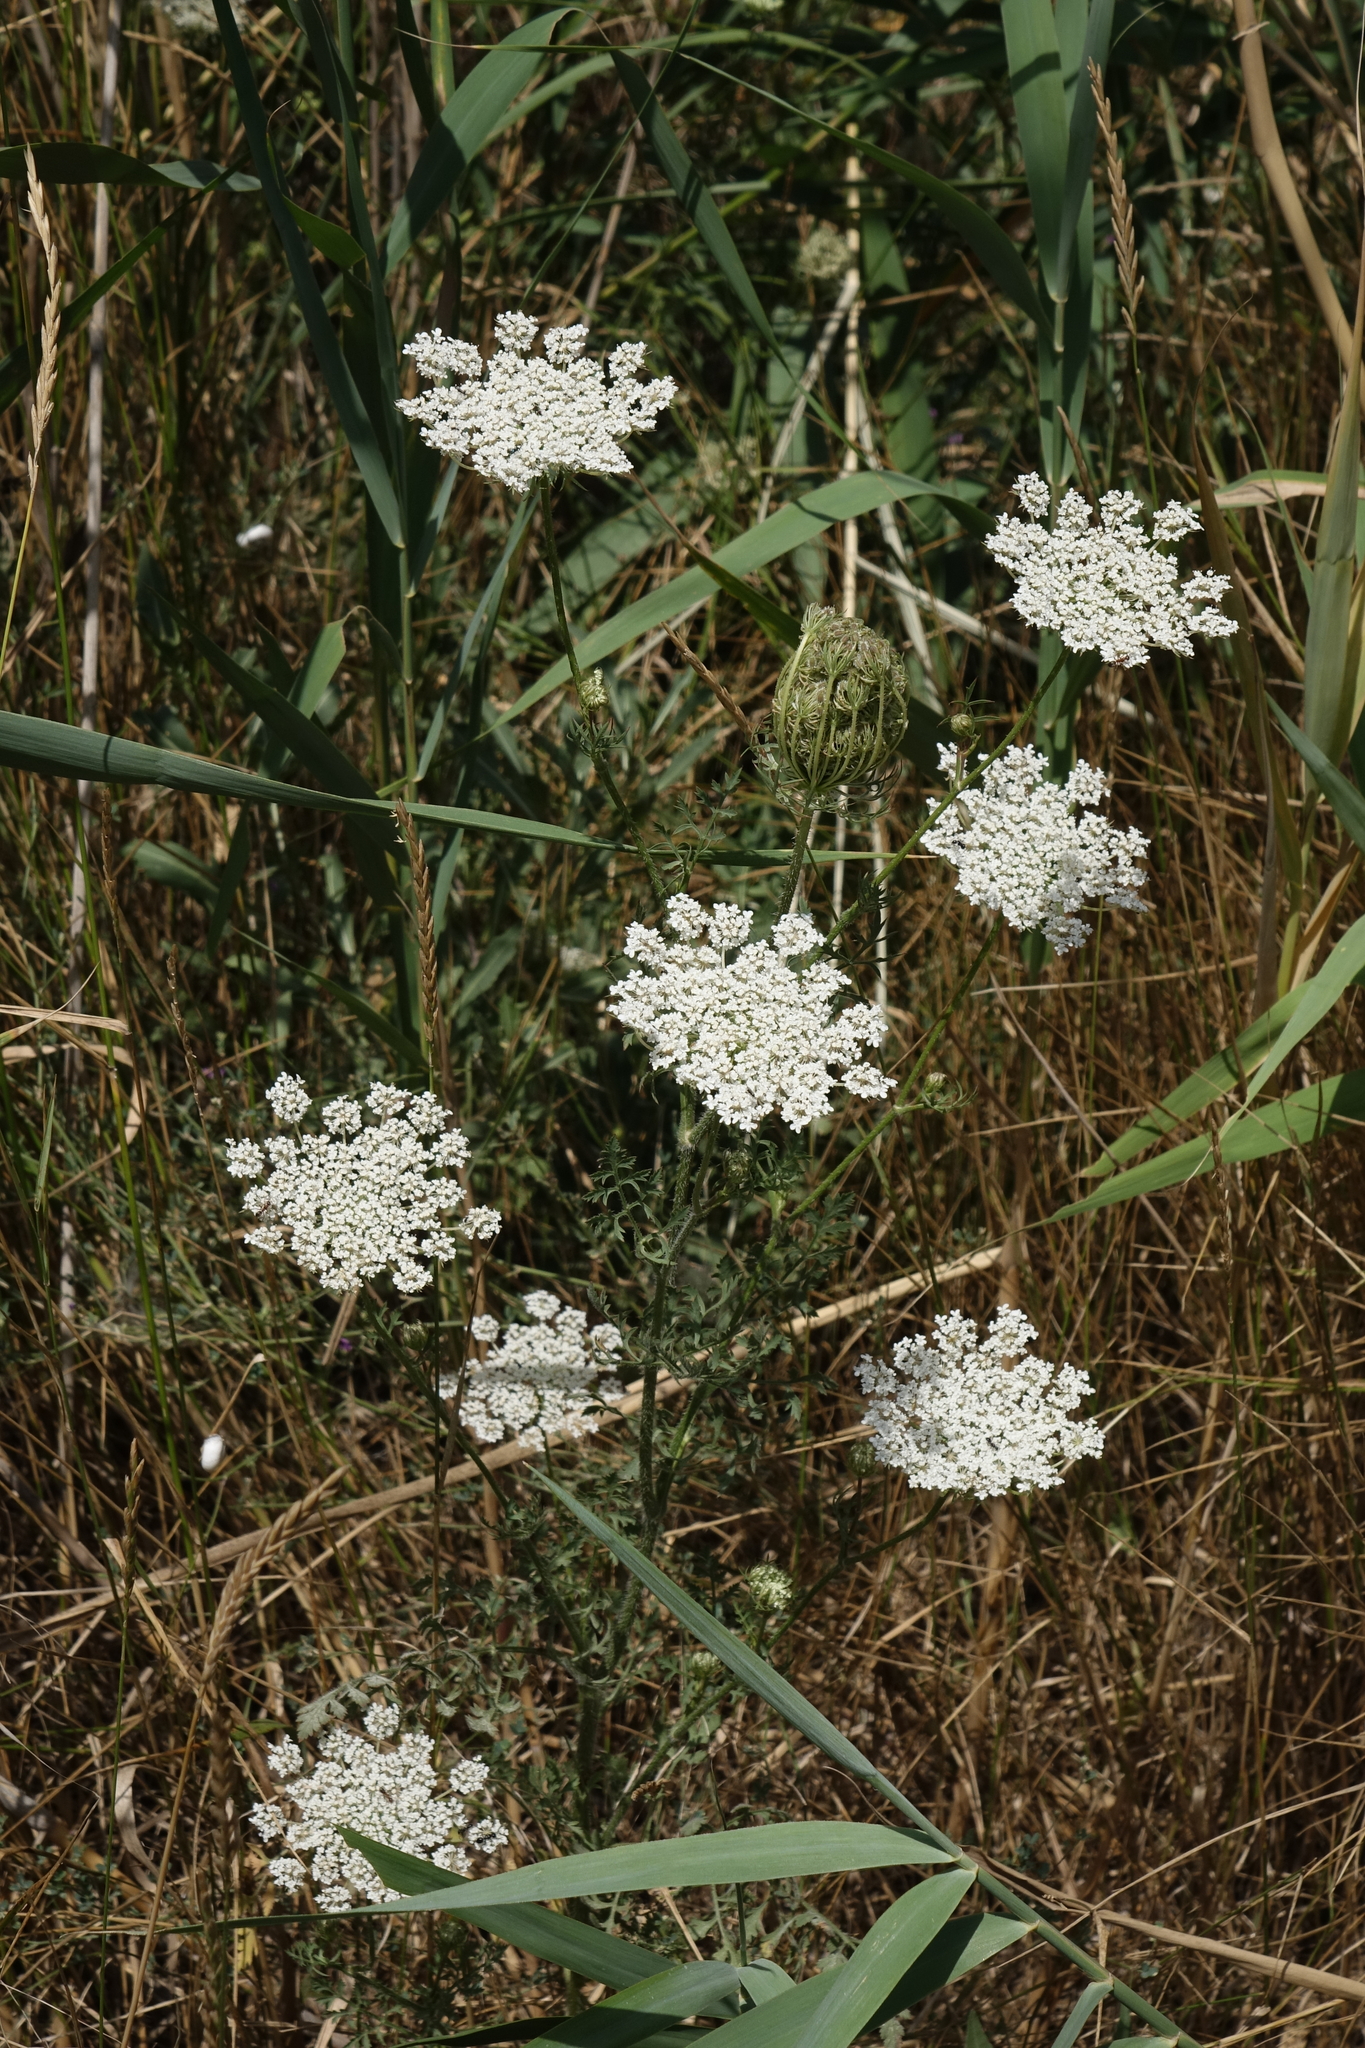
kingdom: Plantae
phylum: Tracheophyta
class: Magnoliopsida
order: Apiales
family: Apiaceae
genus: Daucus
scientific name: Daucus carota
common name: Wild carrot
